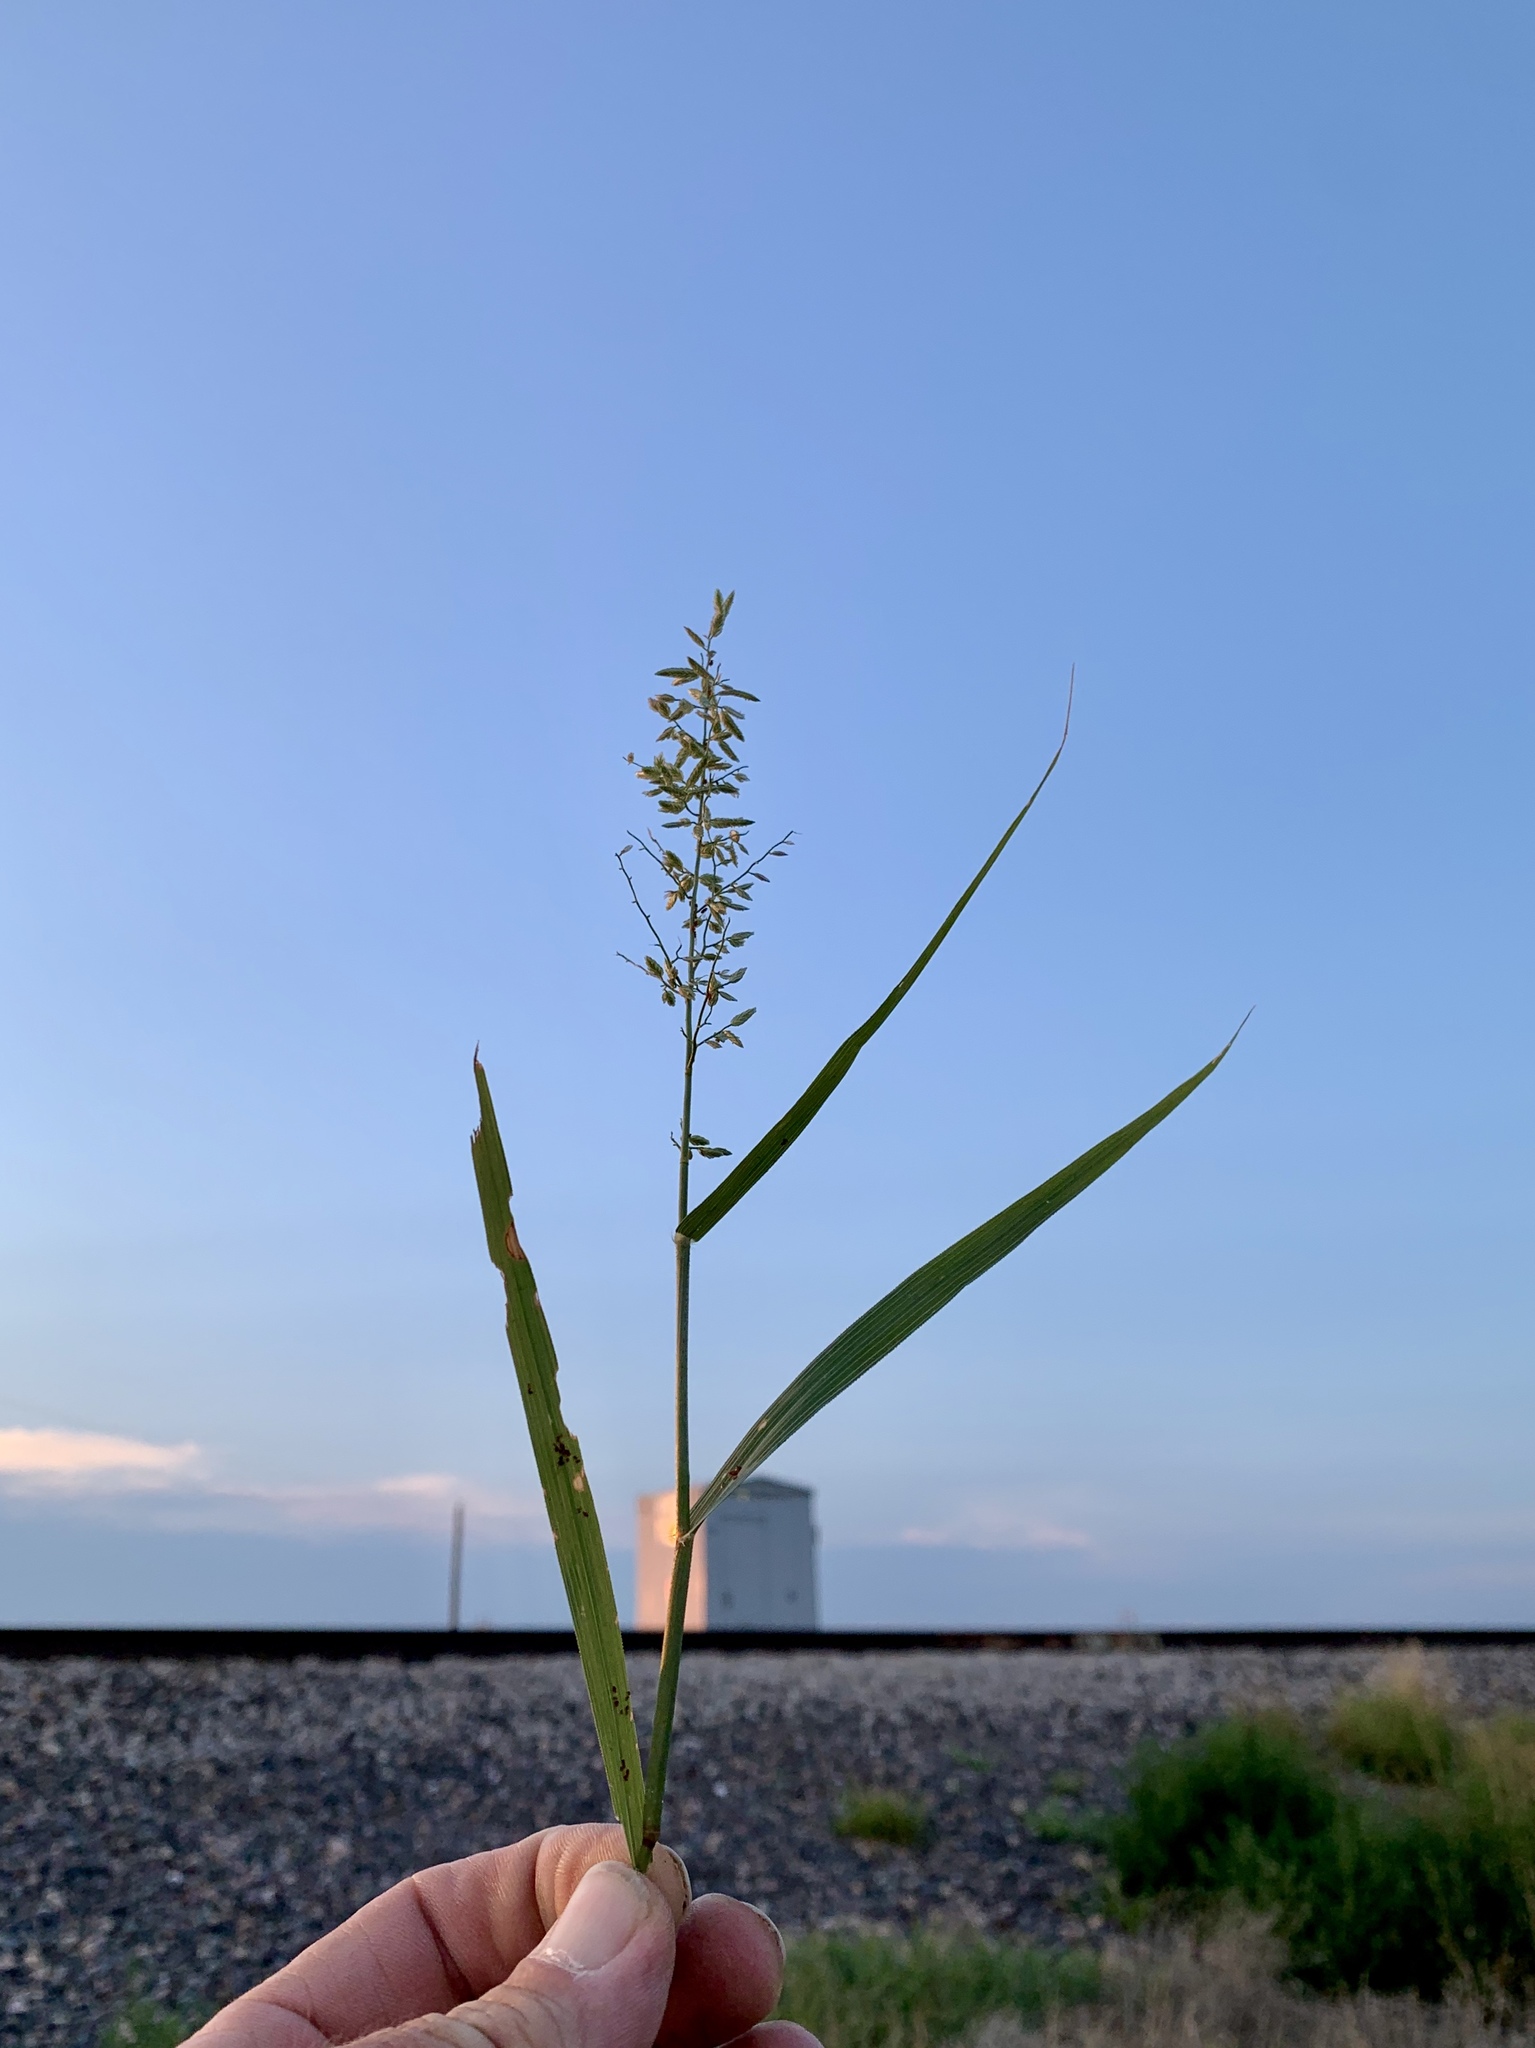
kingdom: Plantae
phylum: Tracheophyta
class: Liliopsida
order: Poales
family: Poaceae
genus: Eragrostis
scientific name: Eragrostis cilianensis
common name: Stinkgrass
